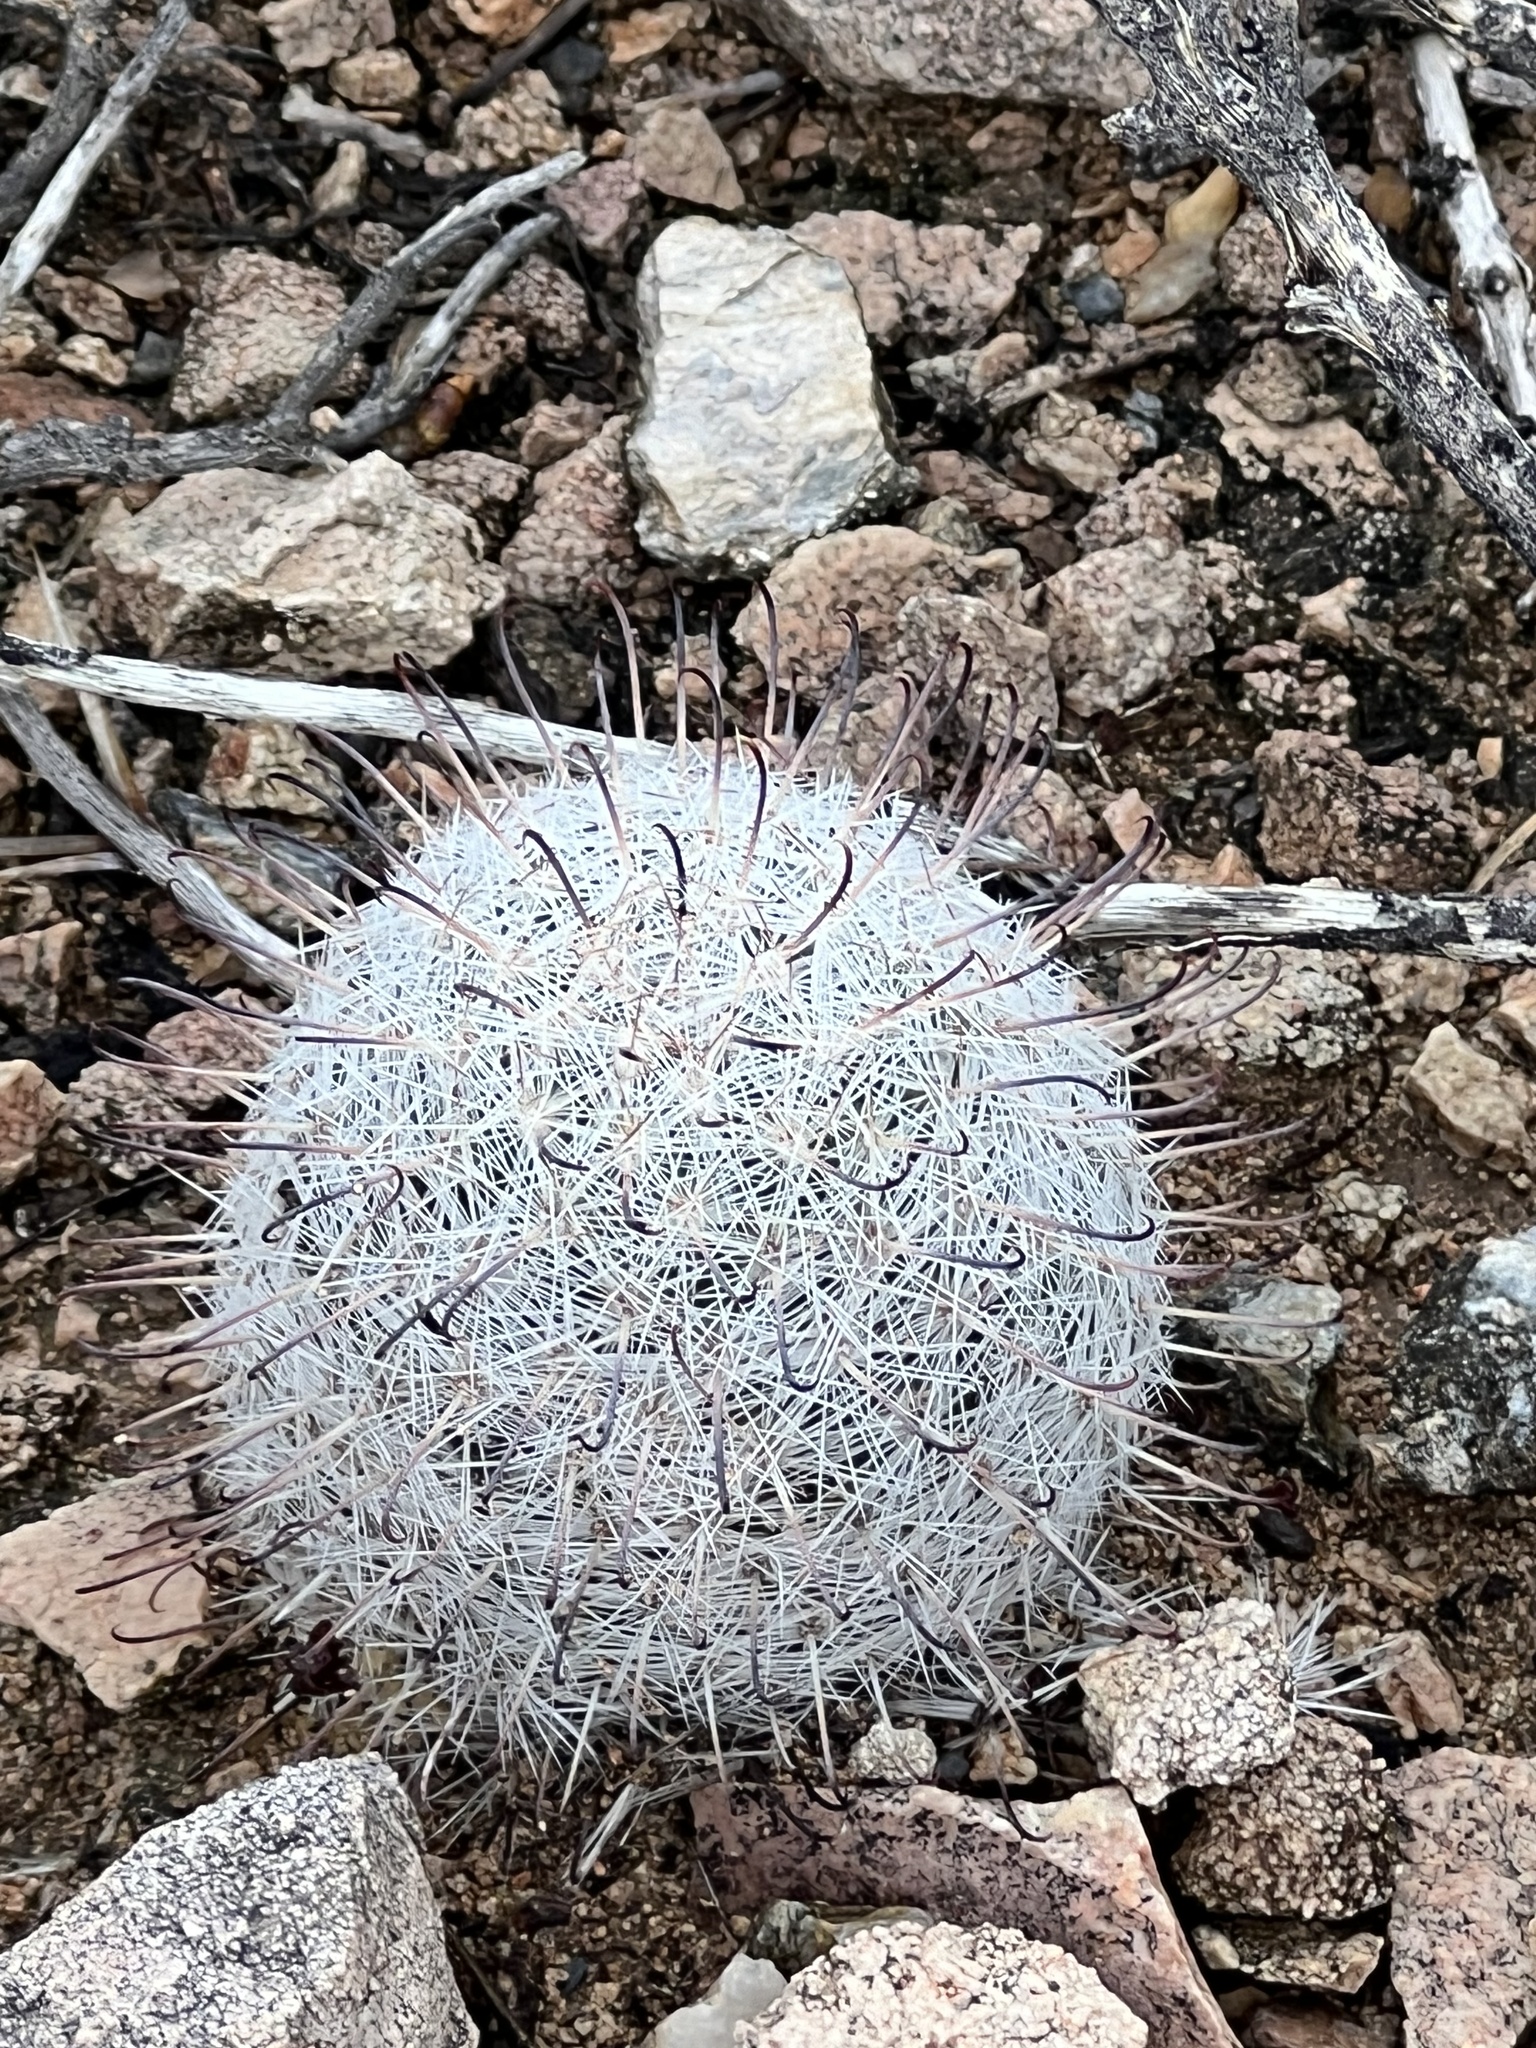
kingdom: Plantae
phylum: Tracheophyta
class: Magnoliopsida
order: Caryophyllales
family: Cactaceae
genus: Cochemiea
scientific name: Cochemiea grahamii
